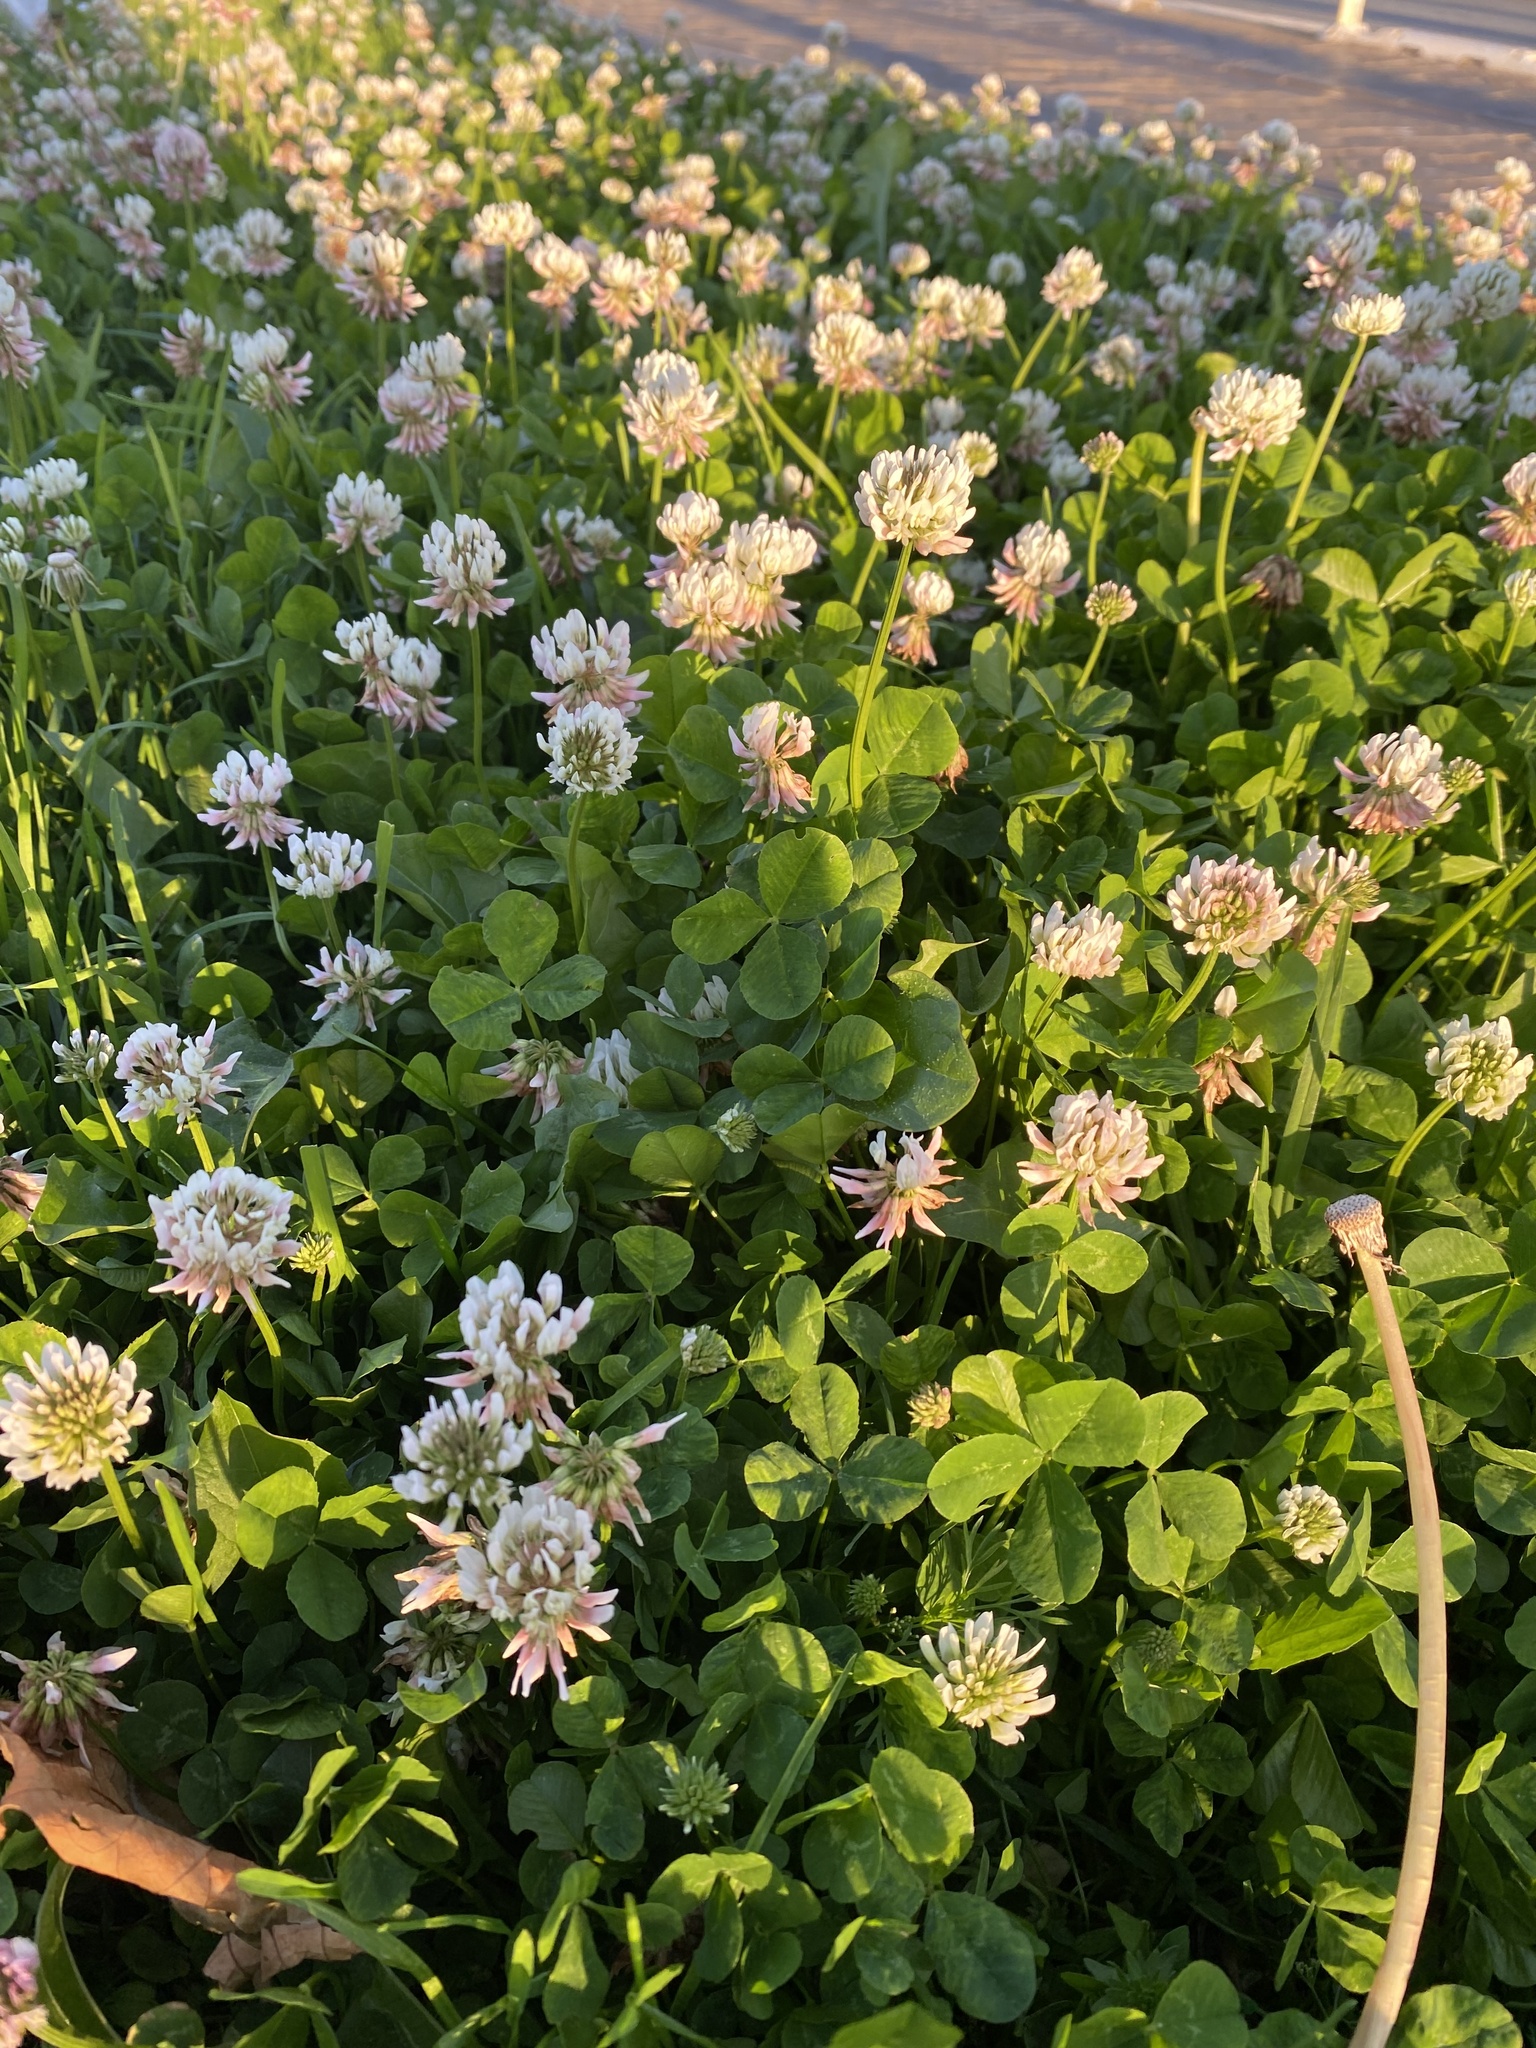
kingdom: Plantae
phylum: Tracheophyta
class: Magnoliopsida
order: Fabales
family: Fabaceae
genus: Trifolium
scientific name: Trifolium repens
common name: White clover
